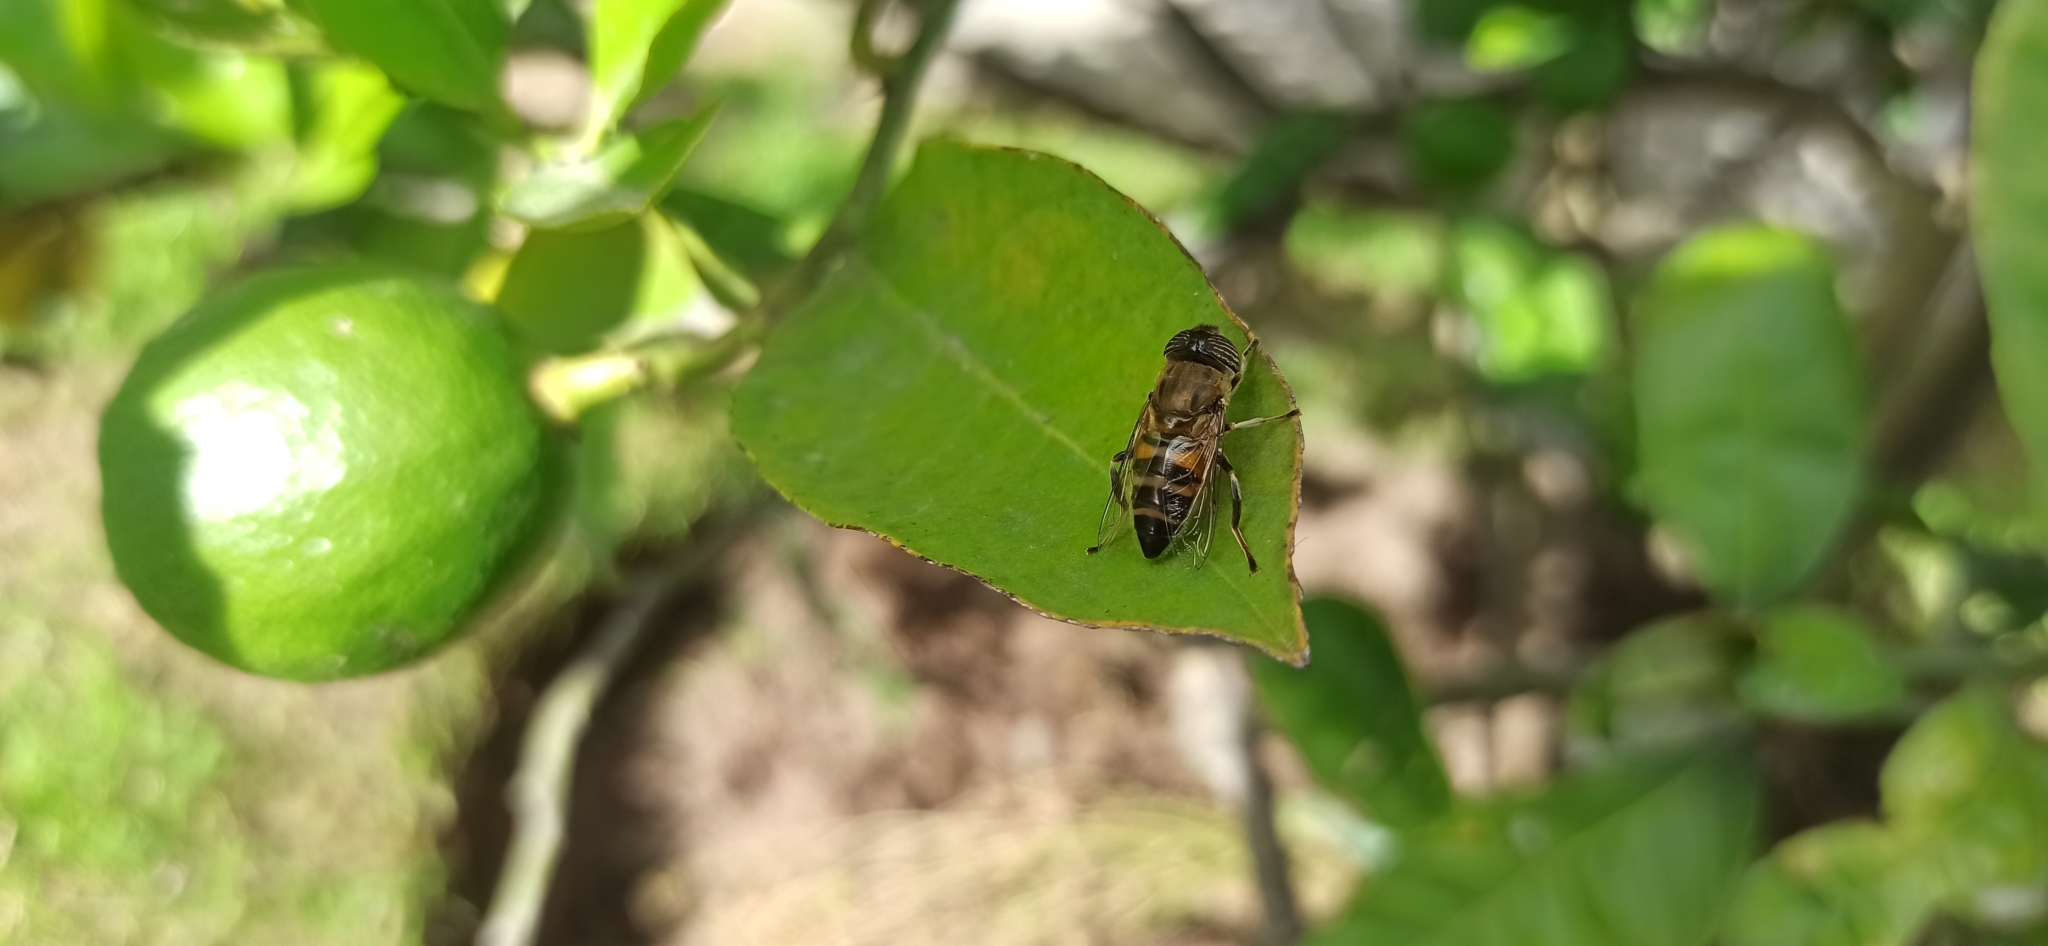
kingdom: Animalia
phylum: Arthropoda
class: Insecta
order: Diptera
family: Syrphidae
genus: Eristalinus
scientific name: Eristalinus taeniops
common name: Syrphid fly
